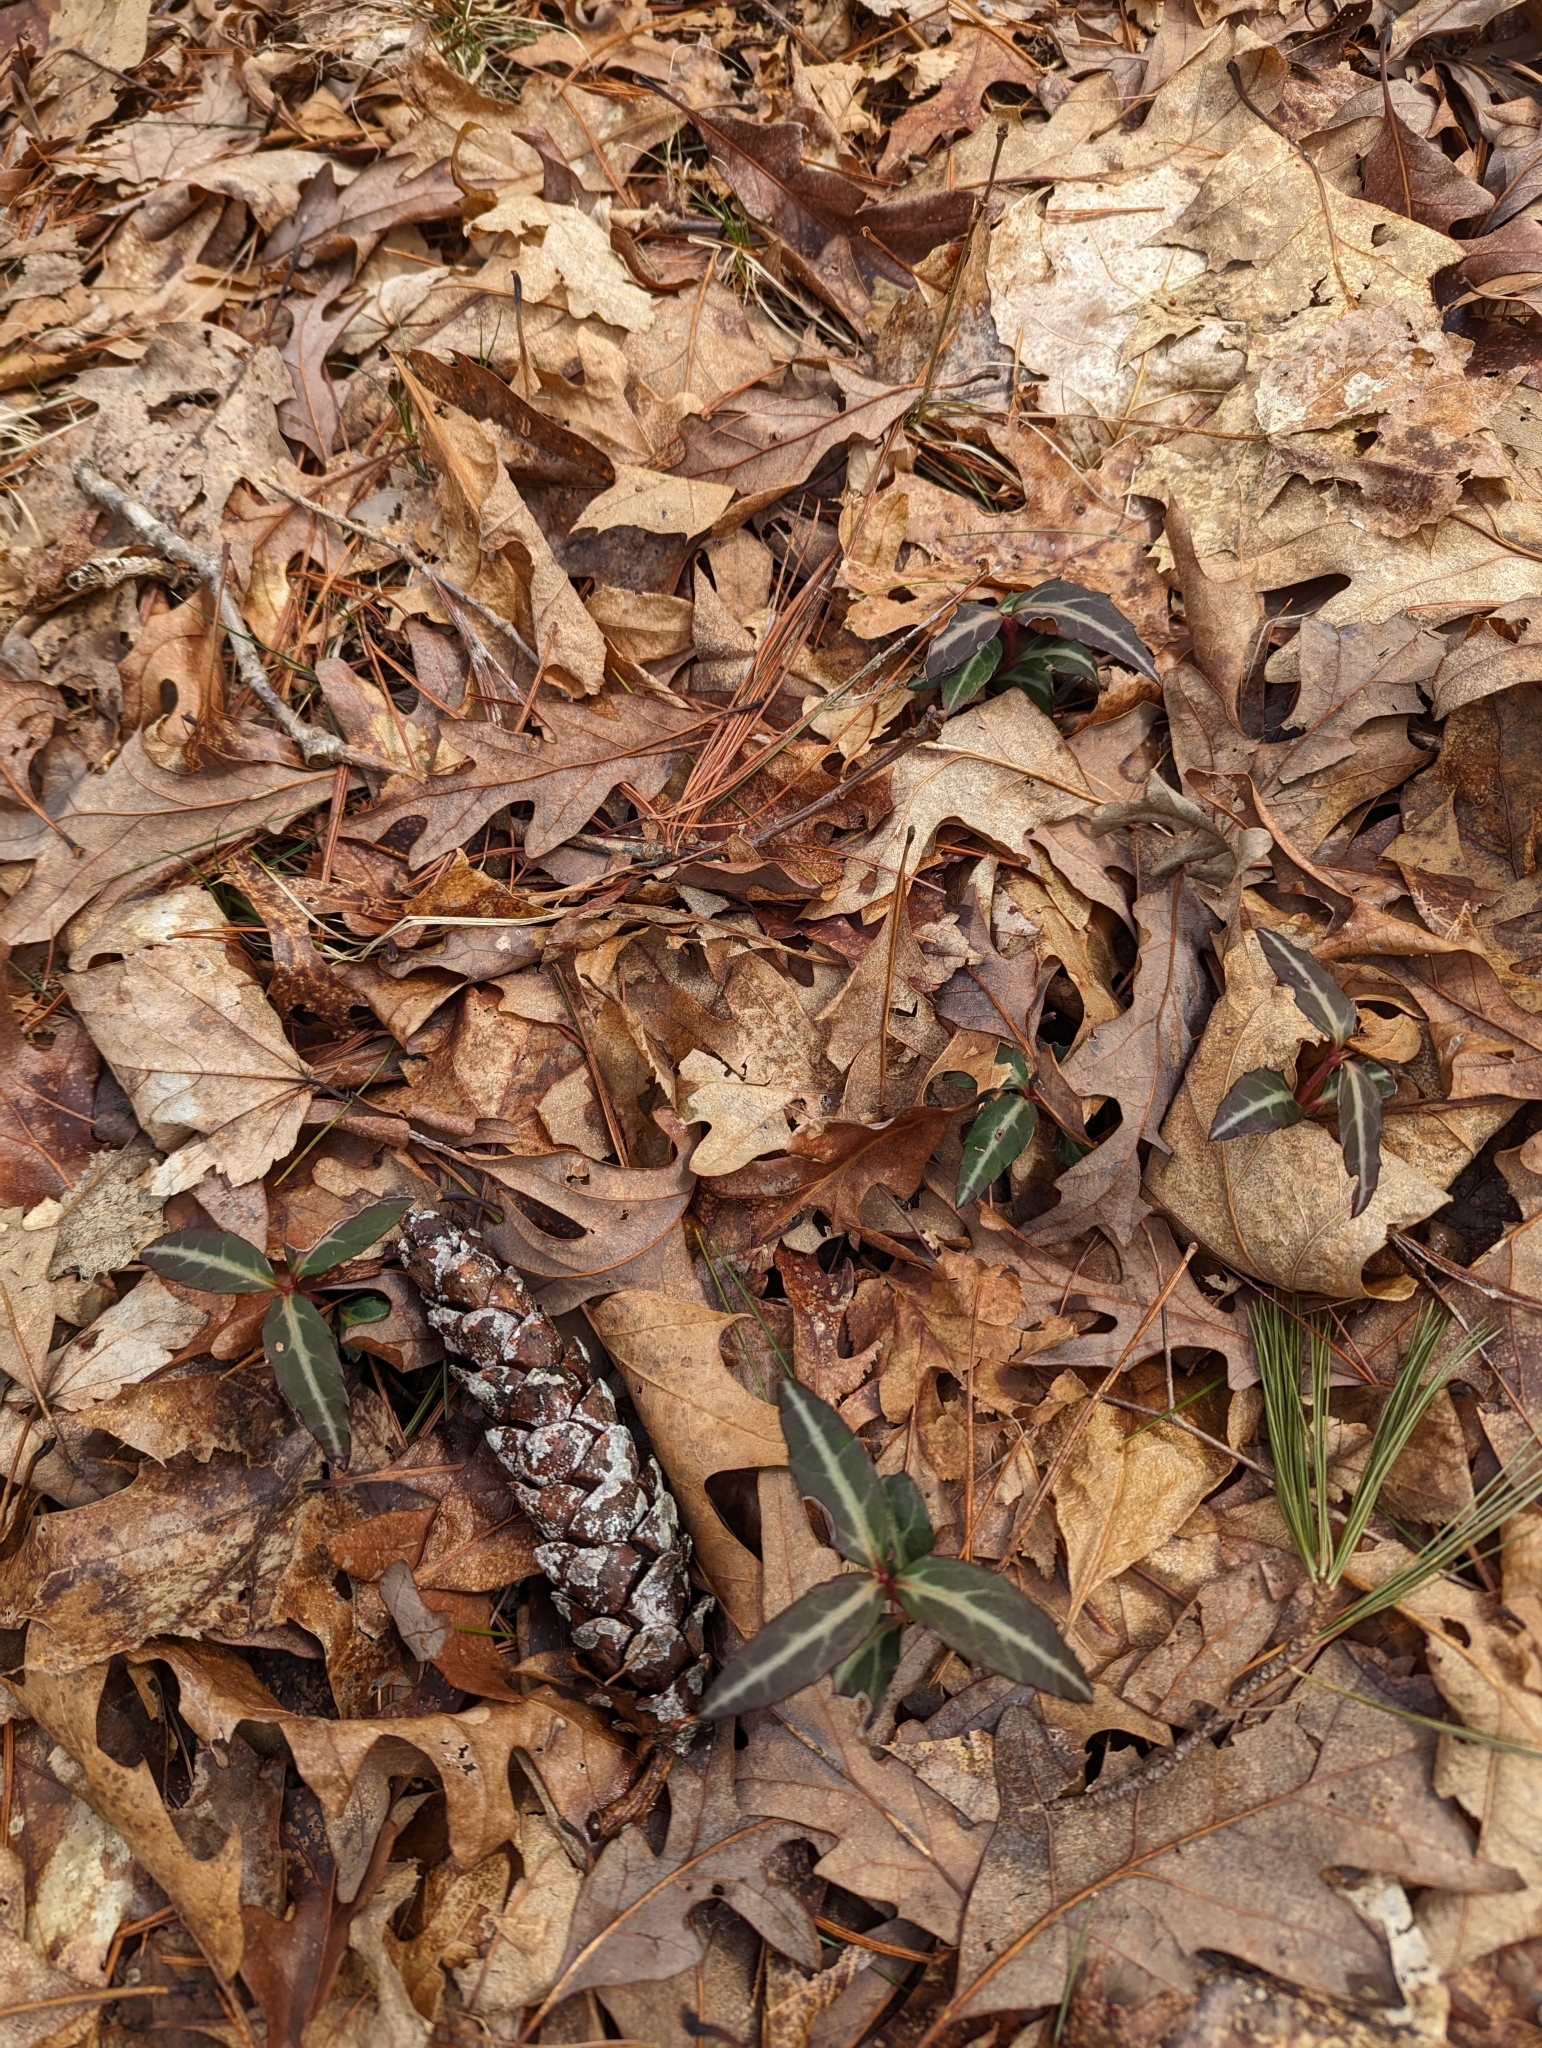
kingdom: Plantae
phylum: Tracheophyta
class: Magnoliopsida
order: Ericales
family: Ericaceae
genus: Chimaphila
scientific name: Chimaphila maculata
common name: Spotted pipsissewa
